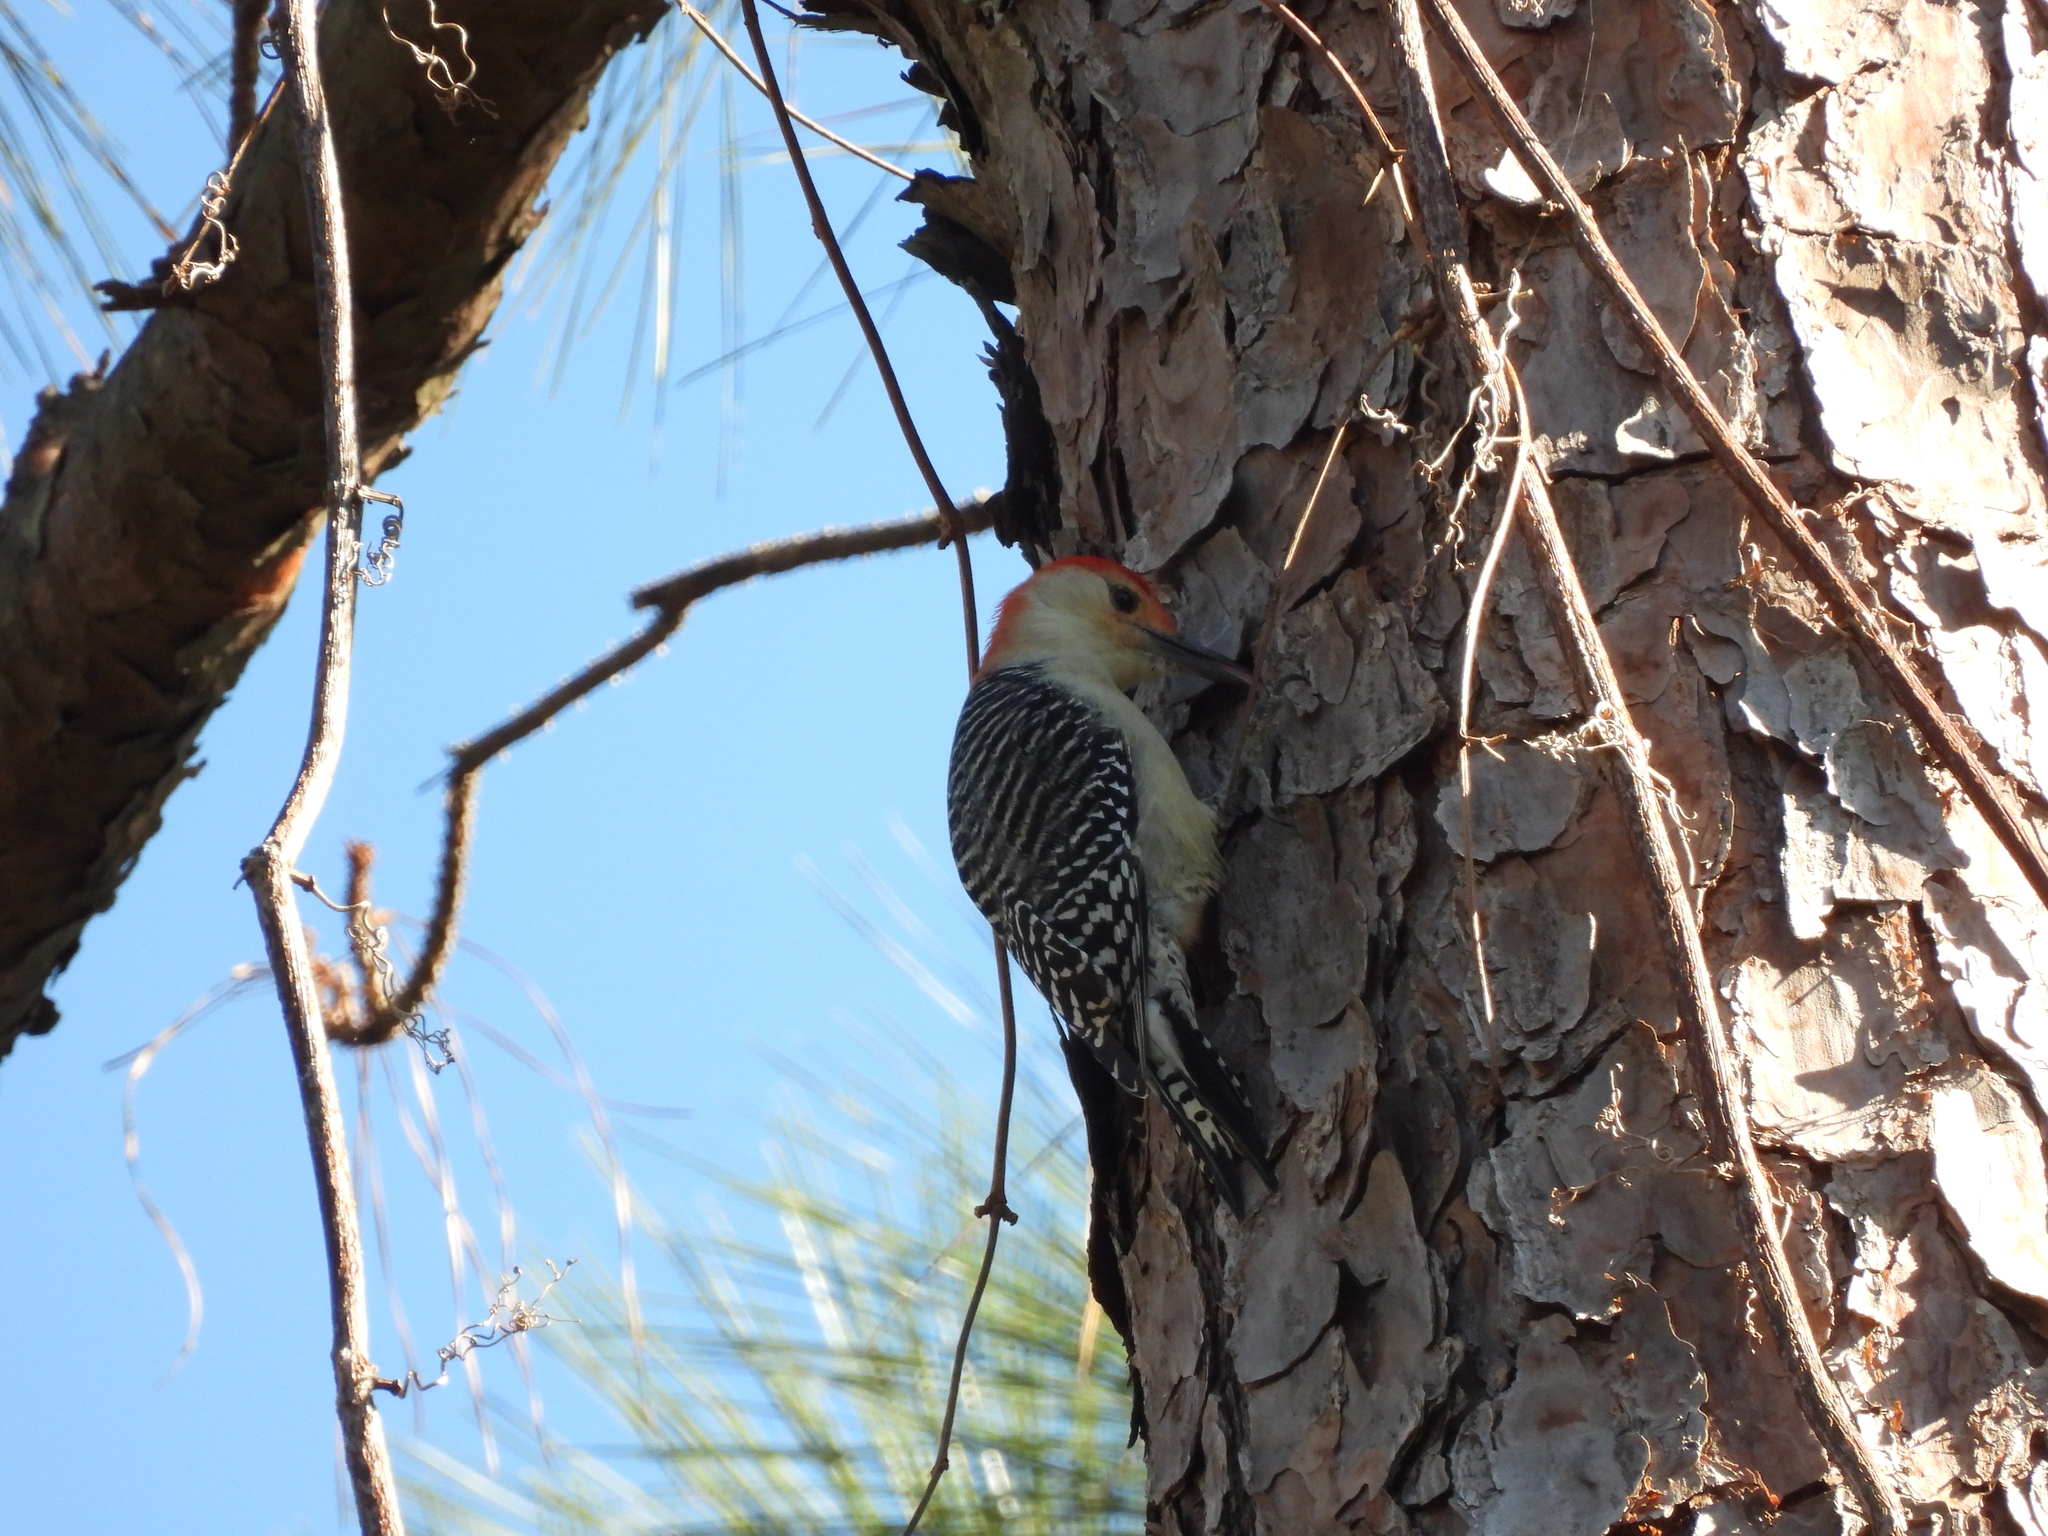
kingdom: Animalia
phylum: Chordata
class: Aves
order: Piciformes
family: Picidae
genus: Melanerpes
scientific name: Melanerpes carolinus
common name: Red-bellied woodpecker
